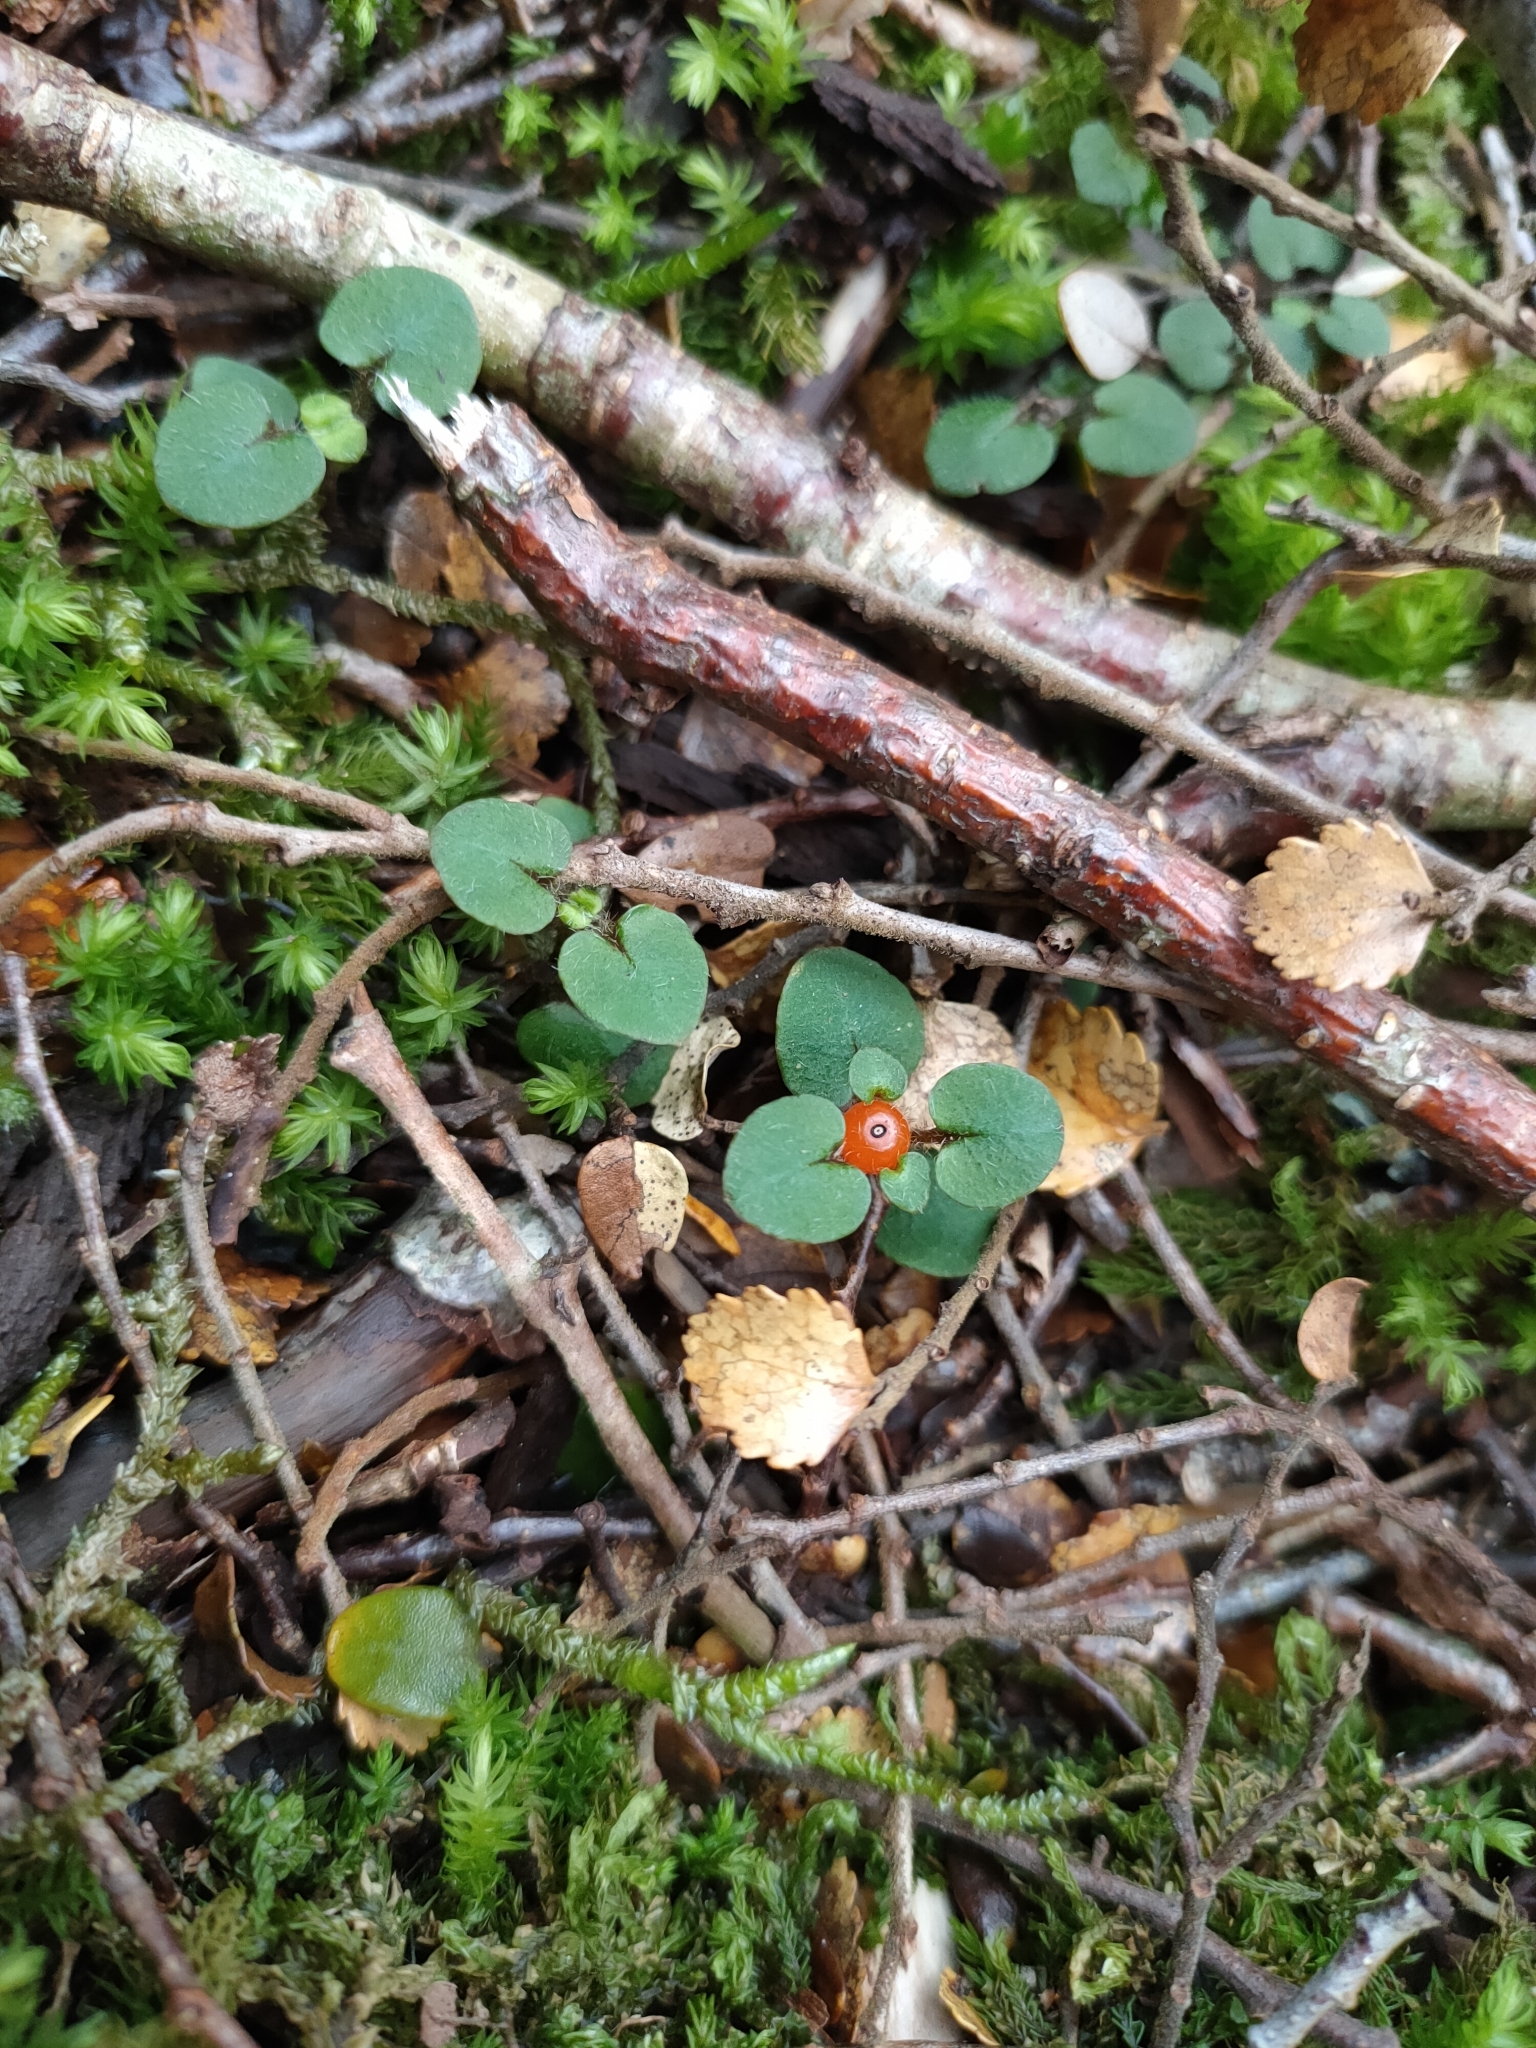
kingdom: Plantae
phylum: Tracheophyta
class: Magnoliopsida
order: Gentianales
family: Rubiaceae
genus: Nertera
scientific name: Nertera villosa
